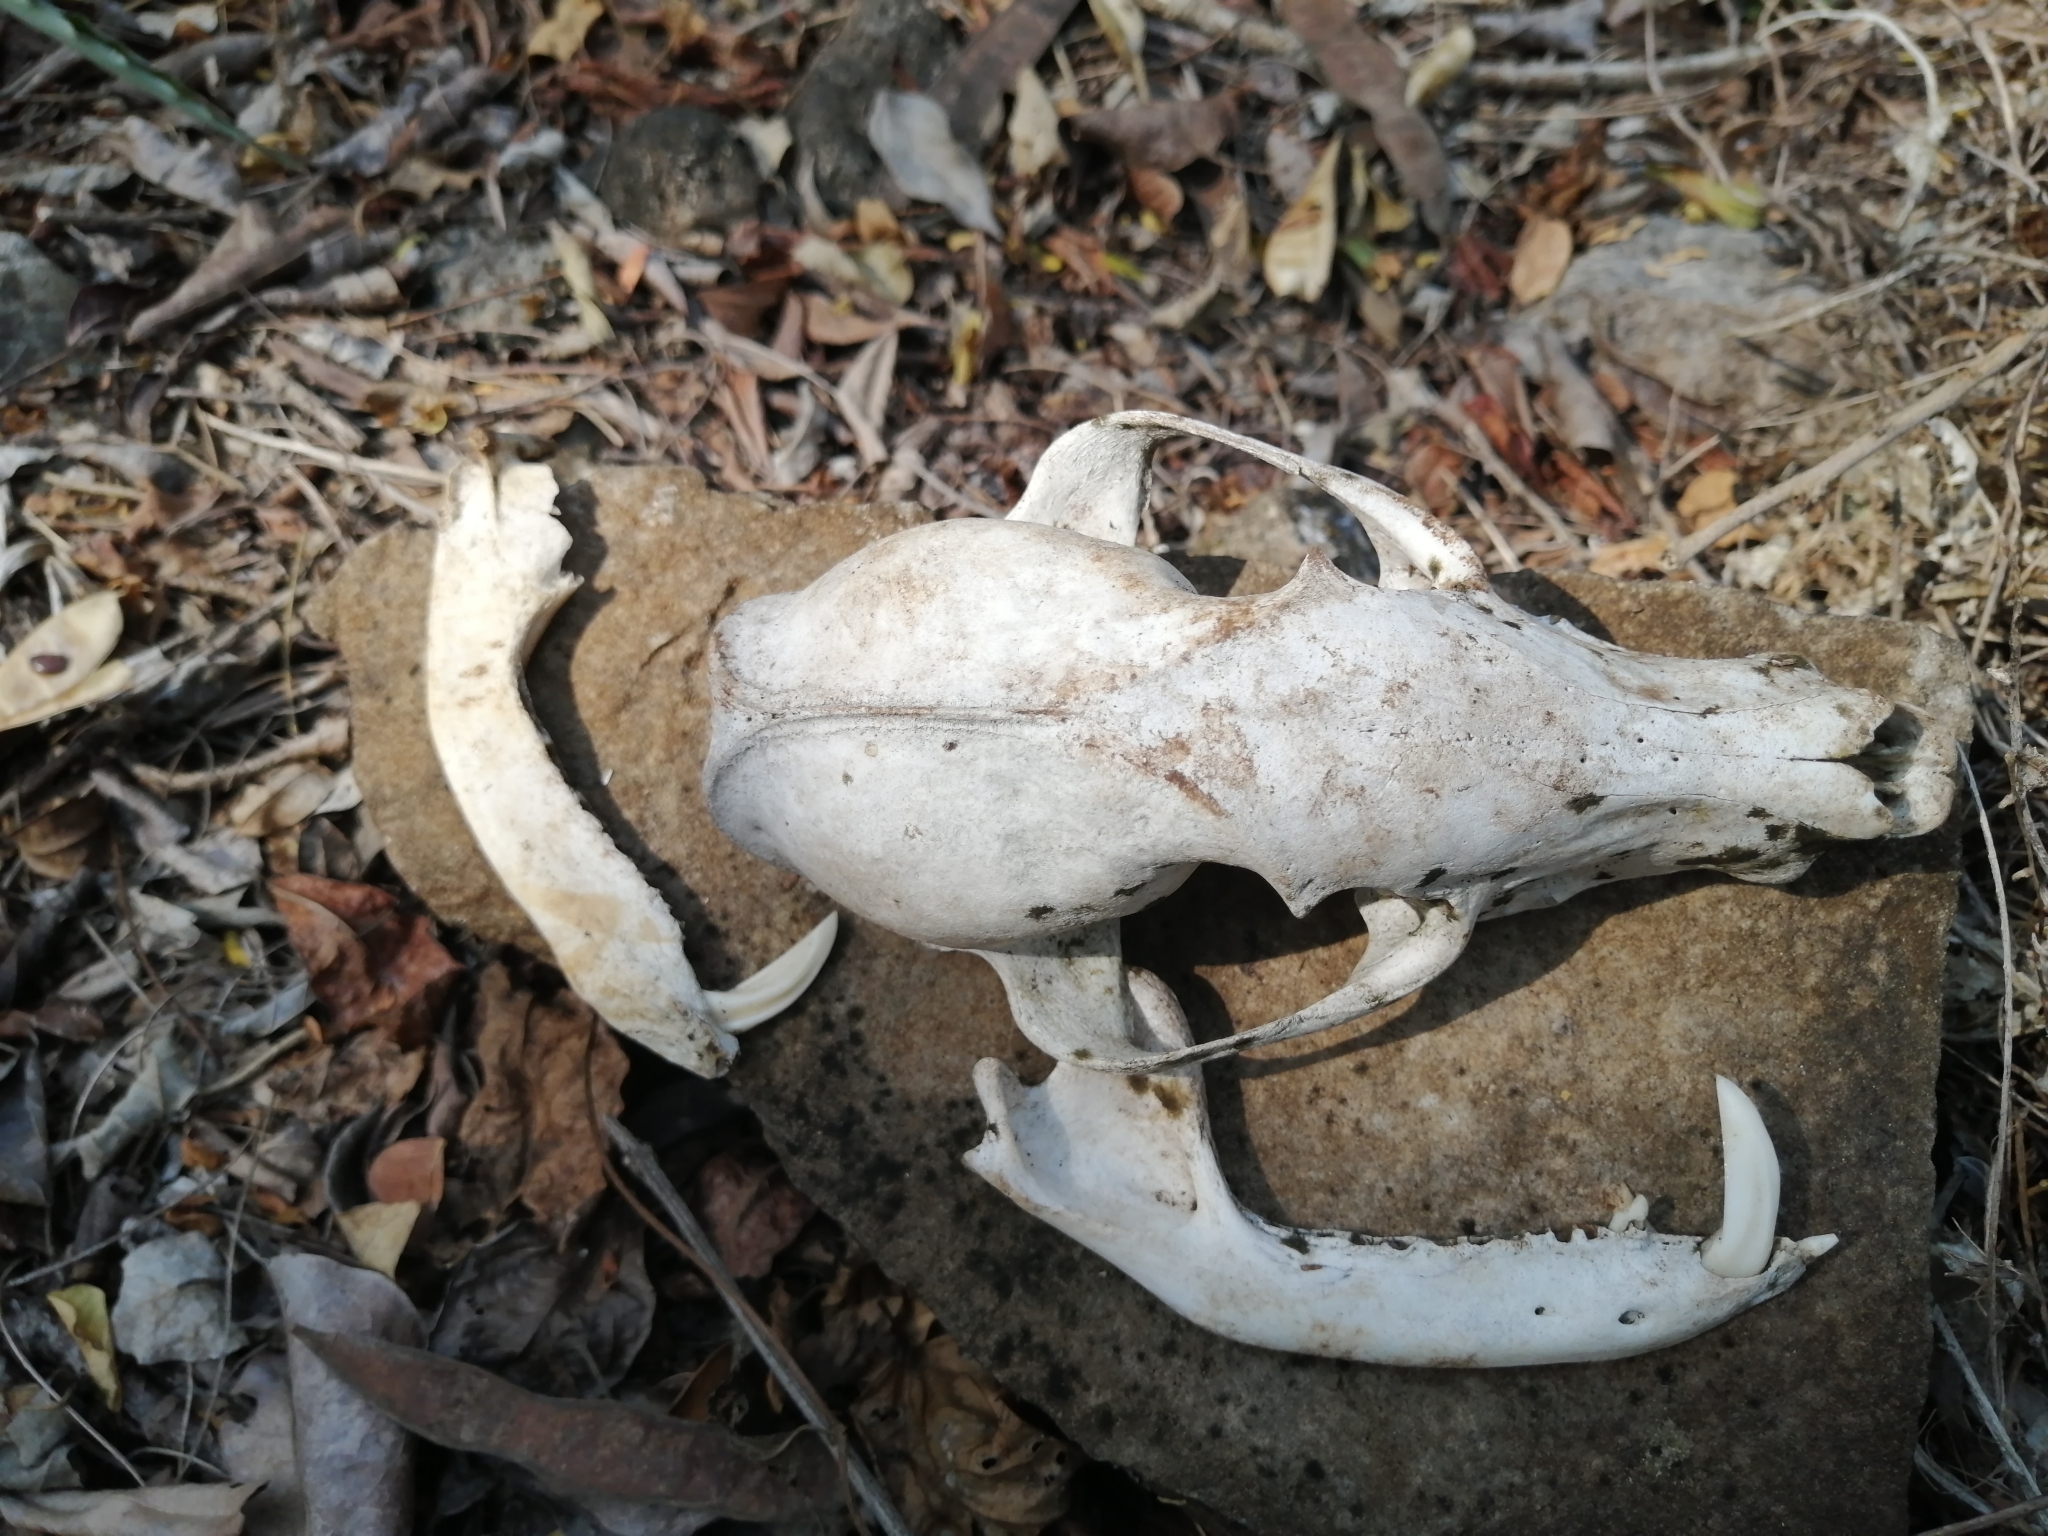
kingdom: Animalia
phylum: Chordata
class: Mammalia
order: Carnivora
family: Procyonidae
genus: Nasua
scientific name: Nasua narica
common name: White-nosed coati
